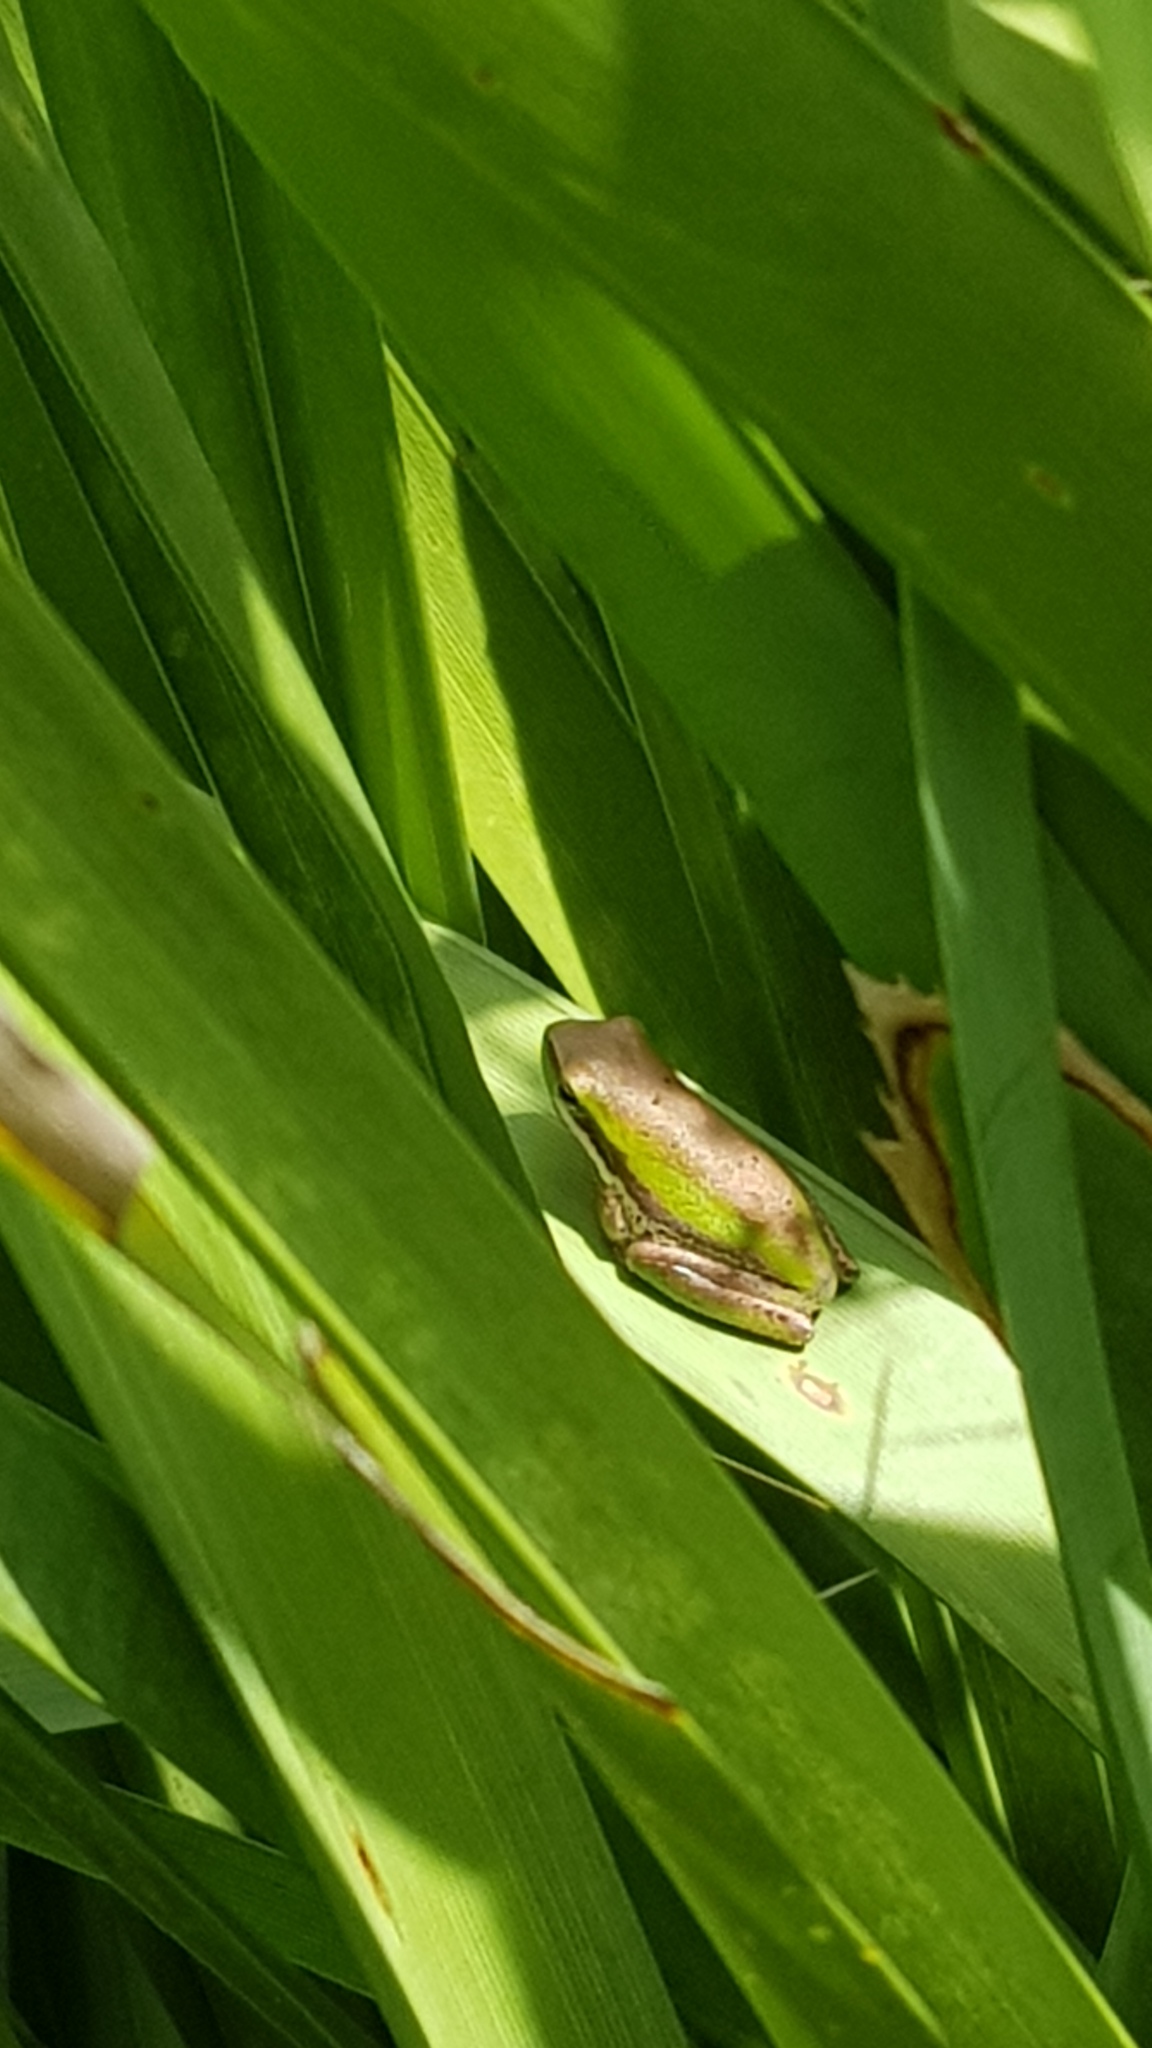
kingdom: Animalia
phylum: Chordata
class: Amphibia
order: Anura
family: Pelodryadidae
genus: Litoria
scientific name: Litoria fallax
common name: Eastern dwarf treefrog
